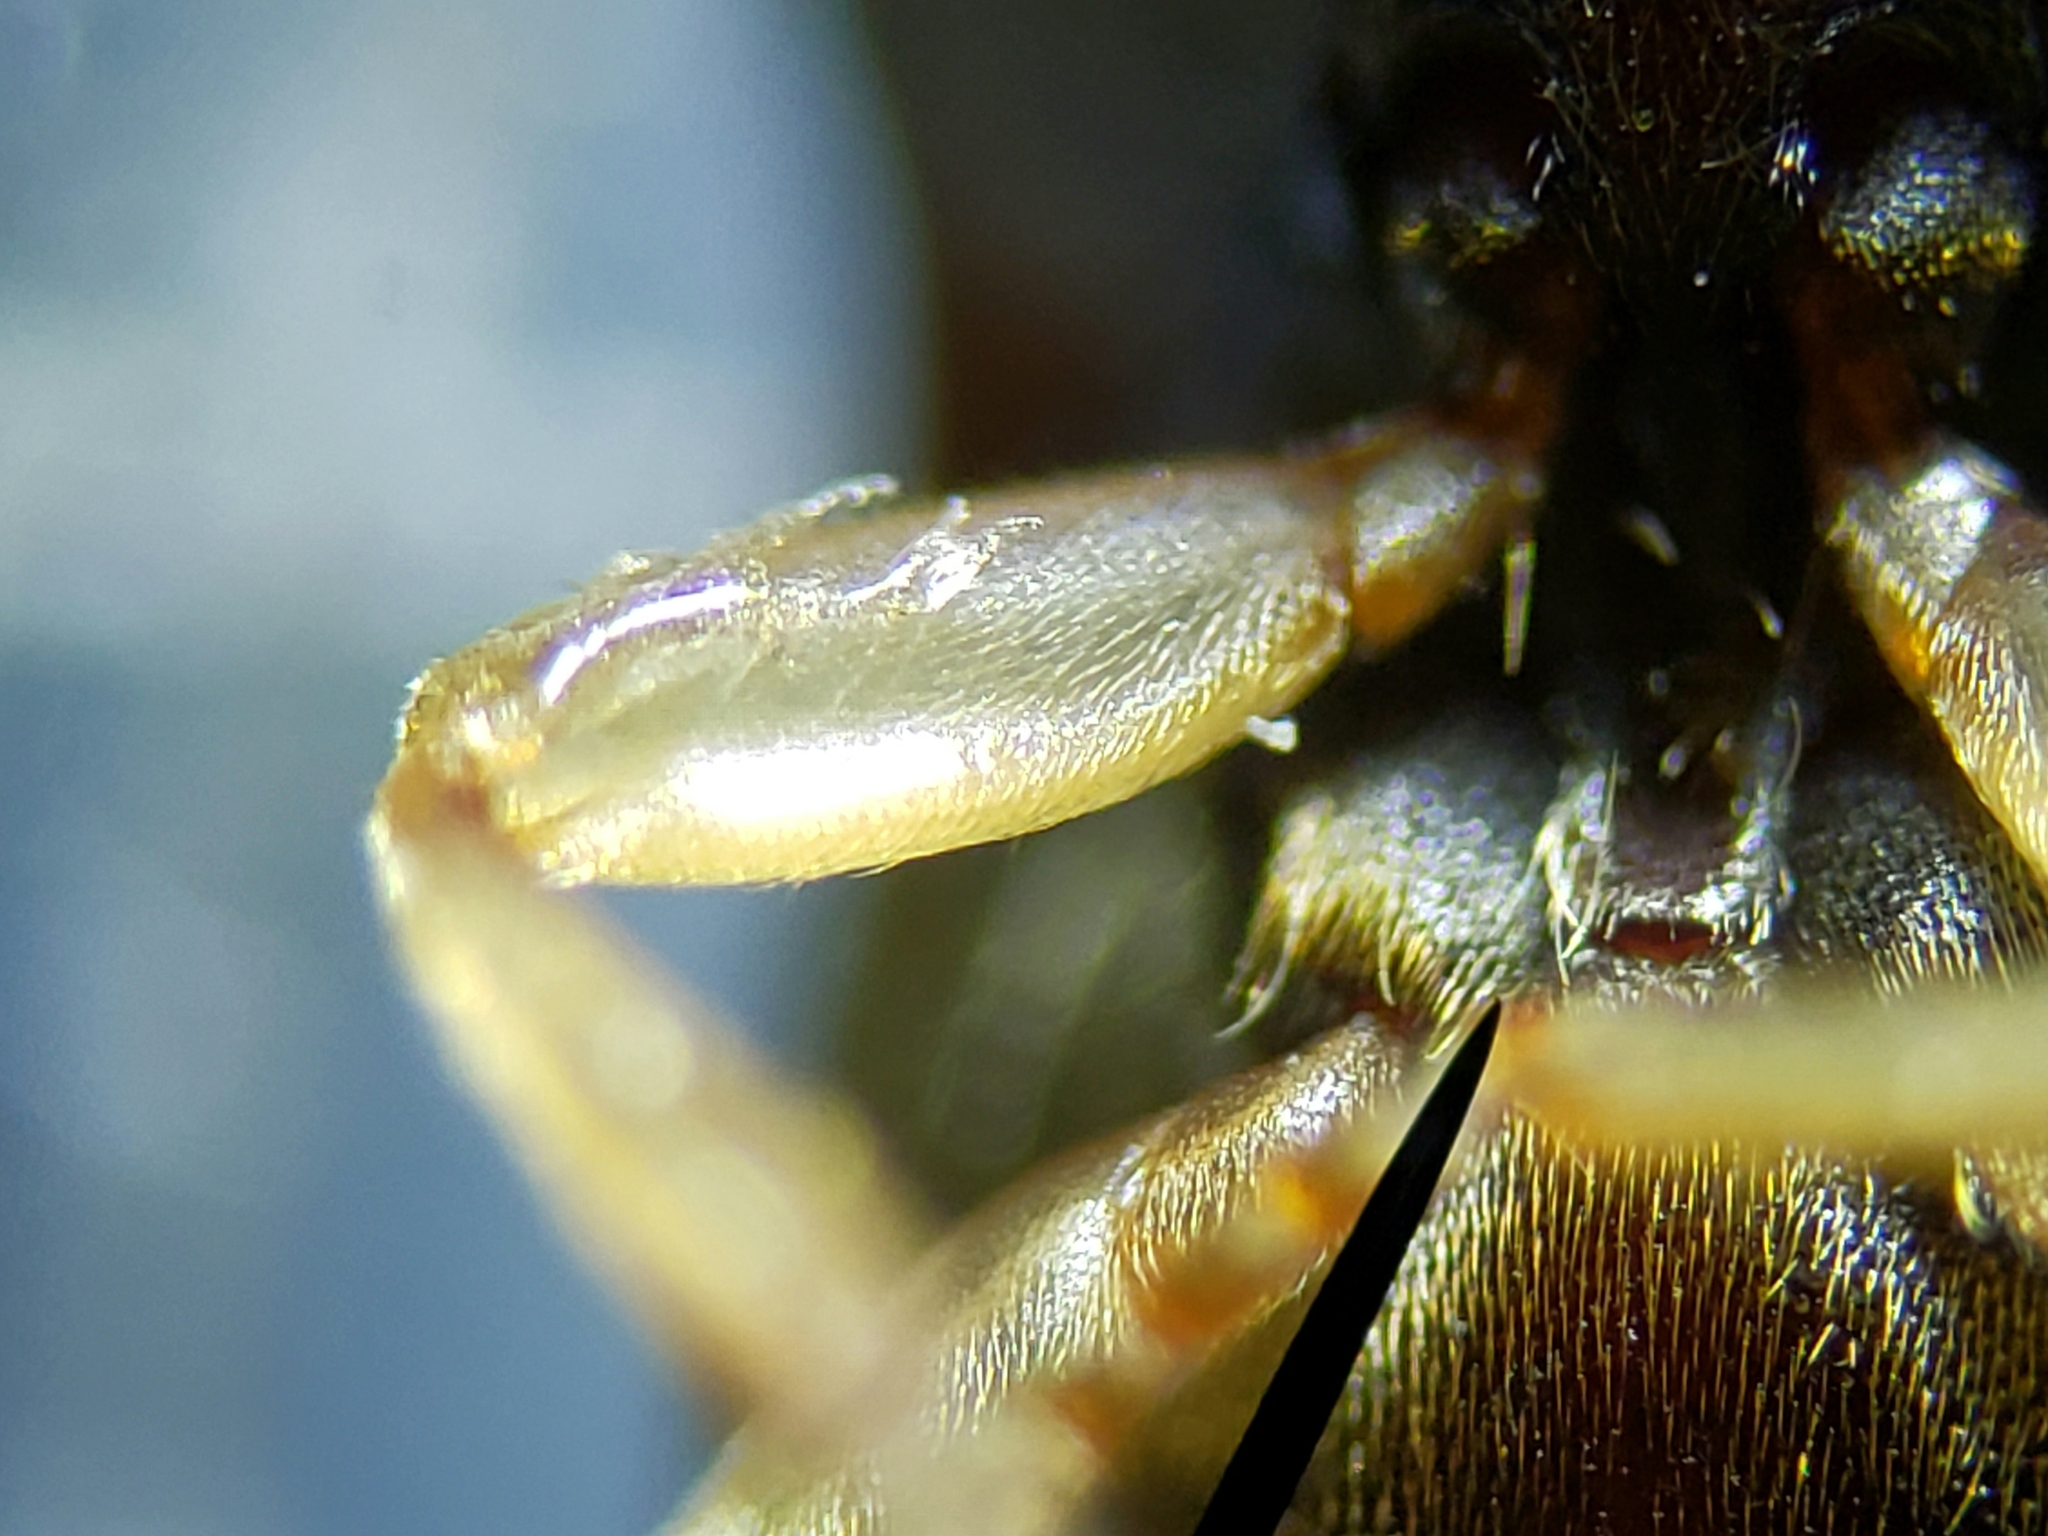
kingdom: Animalia
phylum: Arthropoda
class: Insecta
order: Coleoptera
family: Elateridae
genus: Heteroderes
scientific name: Heteroderes amplicollis
